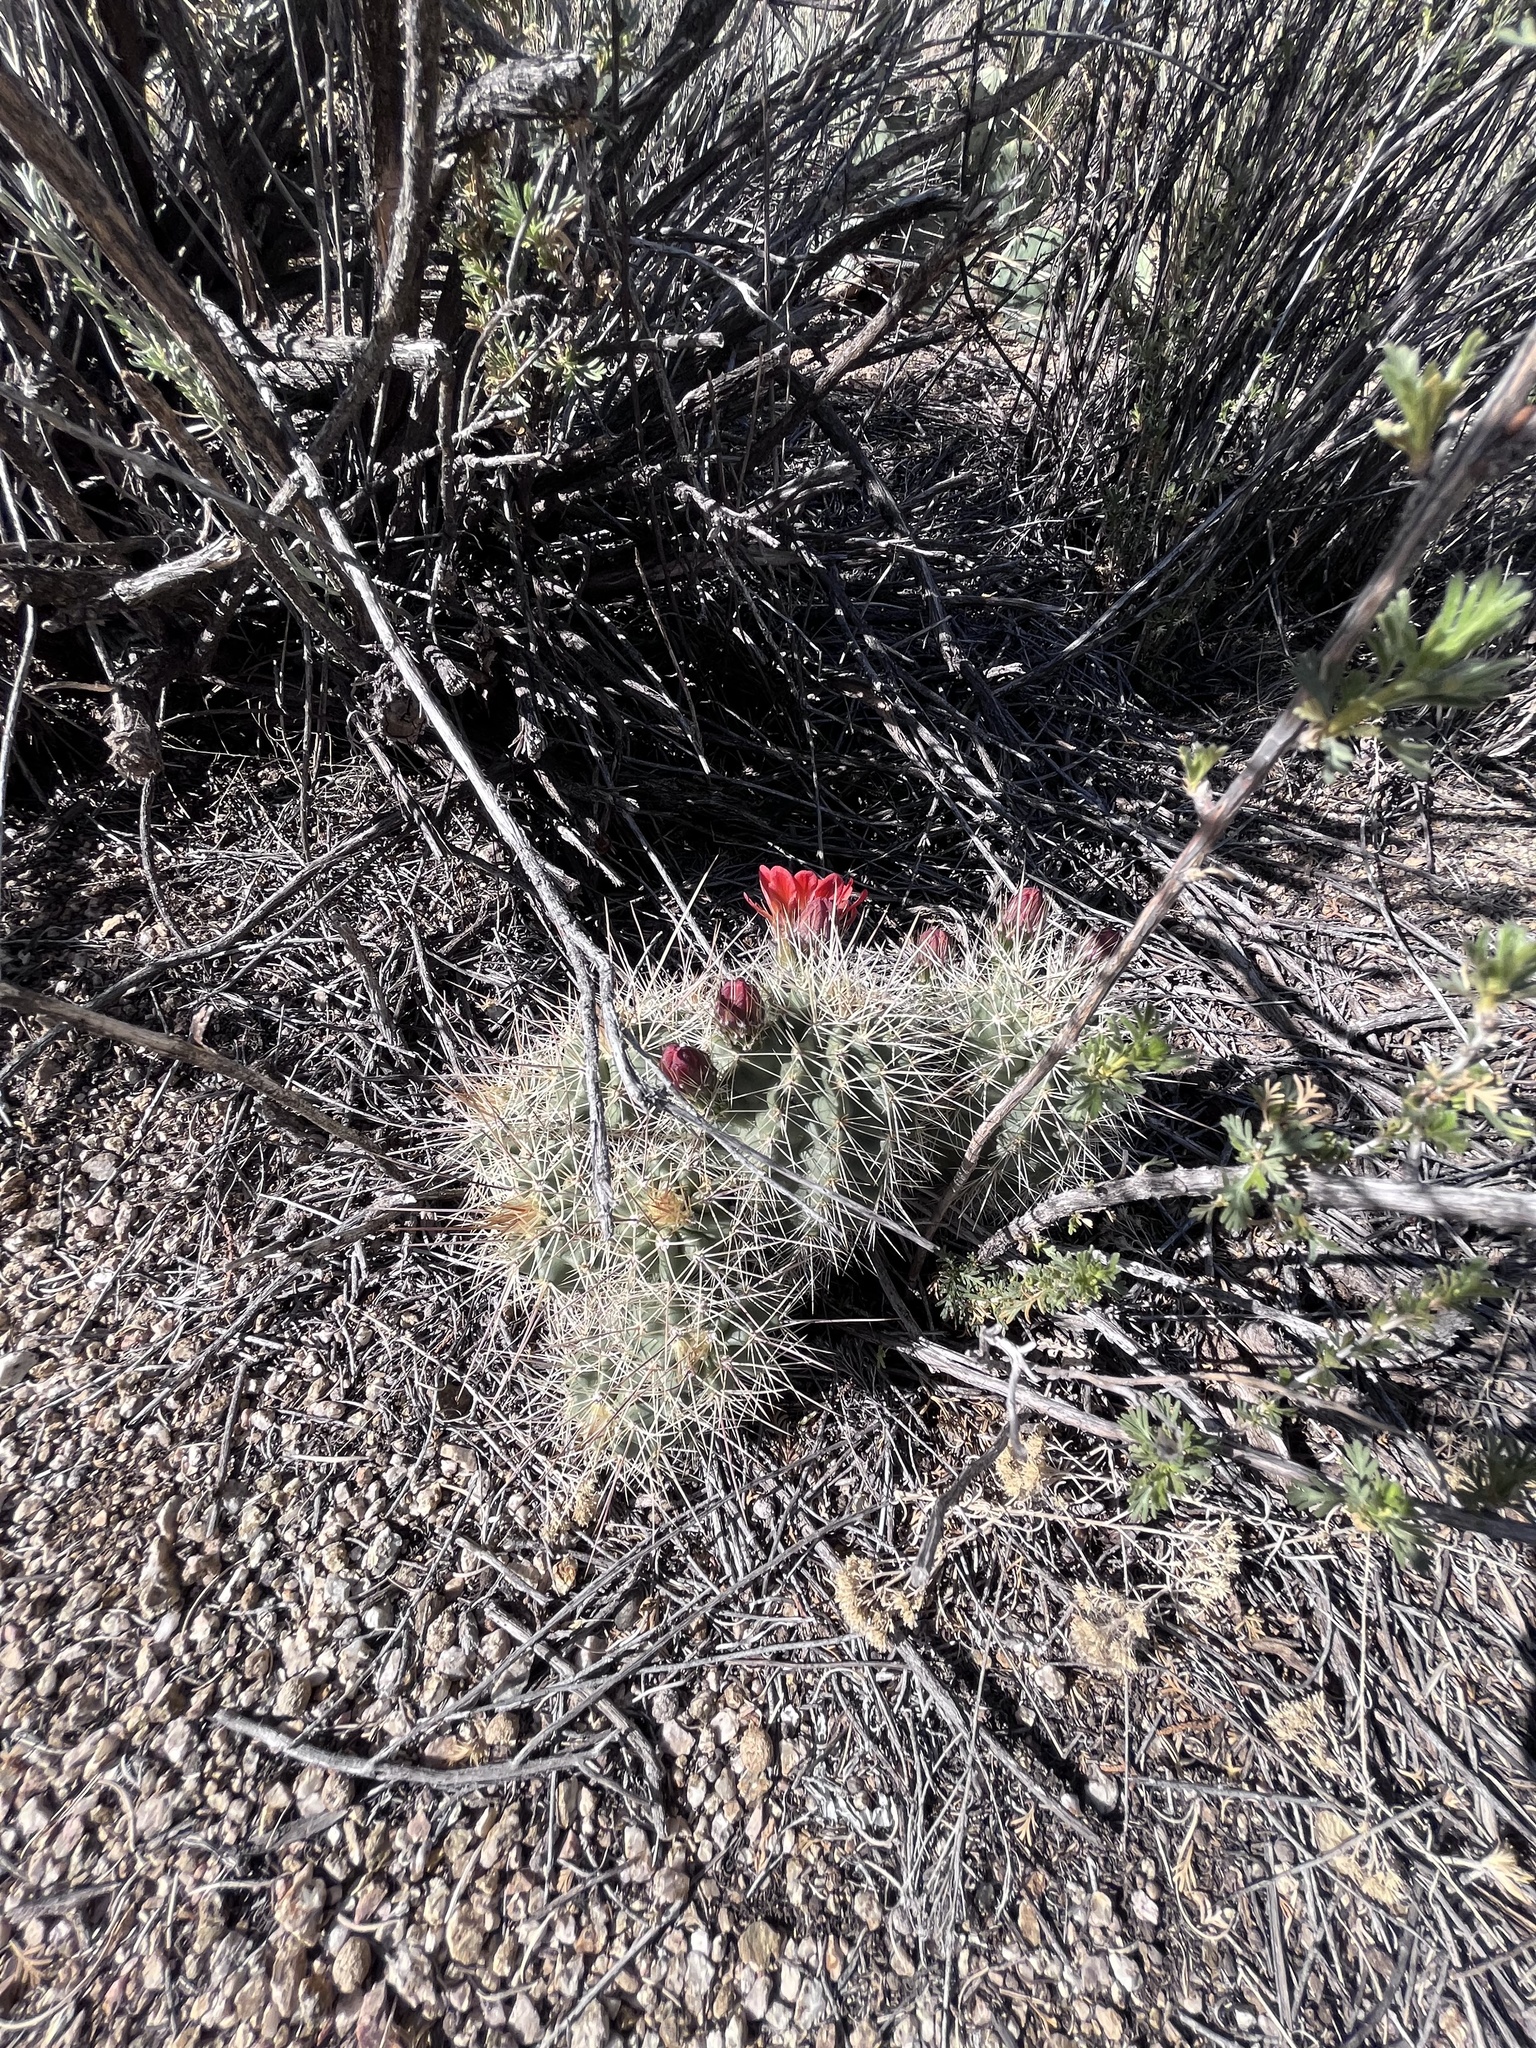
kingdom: Plantae
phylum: Tracheophyta
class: Magnoliopsida
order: Caryophyllales
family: Cactaceae
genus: Echinocereus
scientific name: Echinocereus coccineus
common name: Scarlet hedgehog cactus
